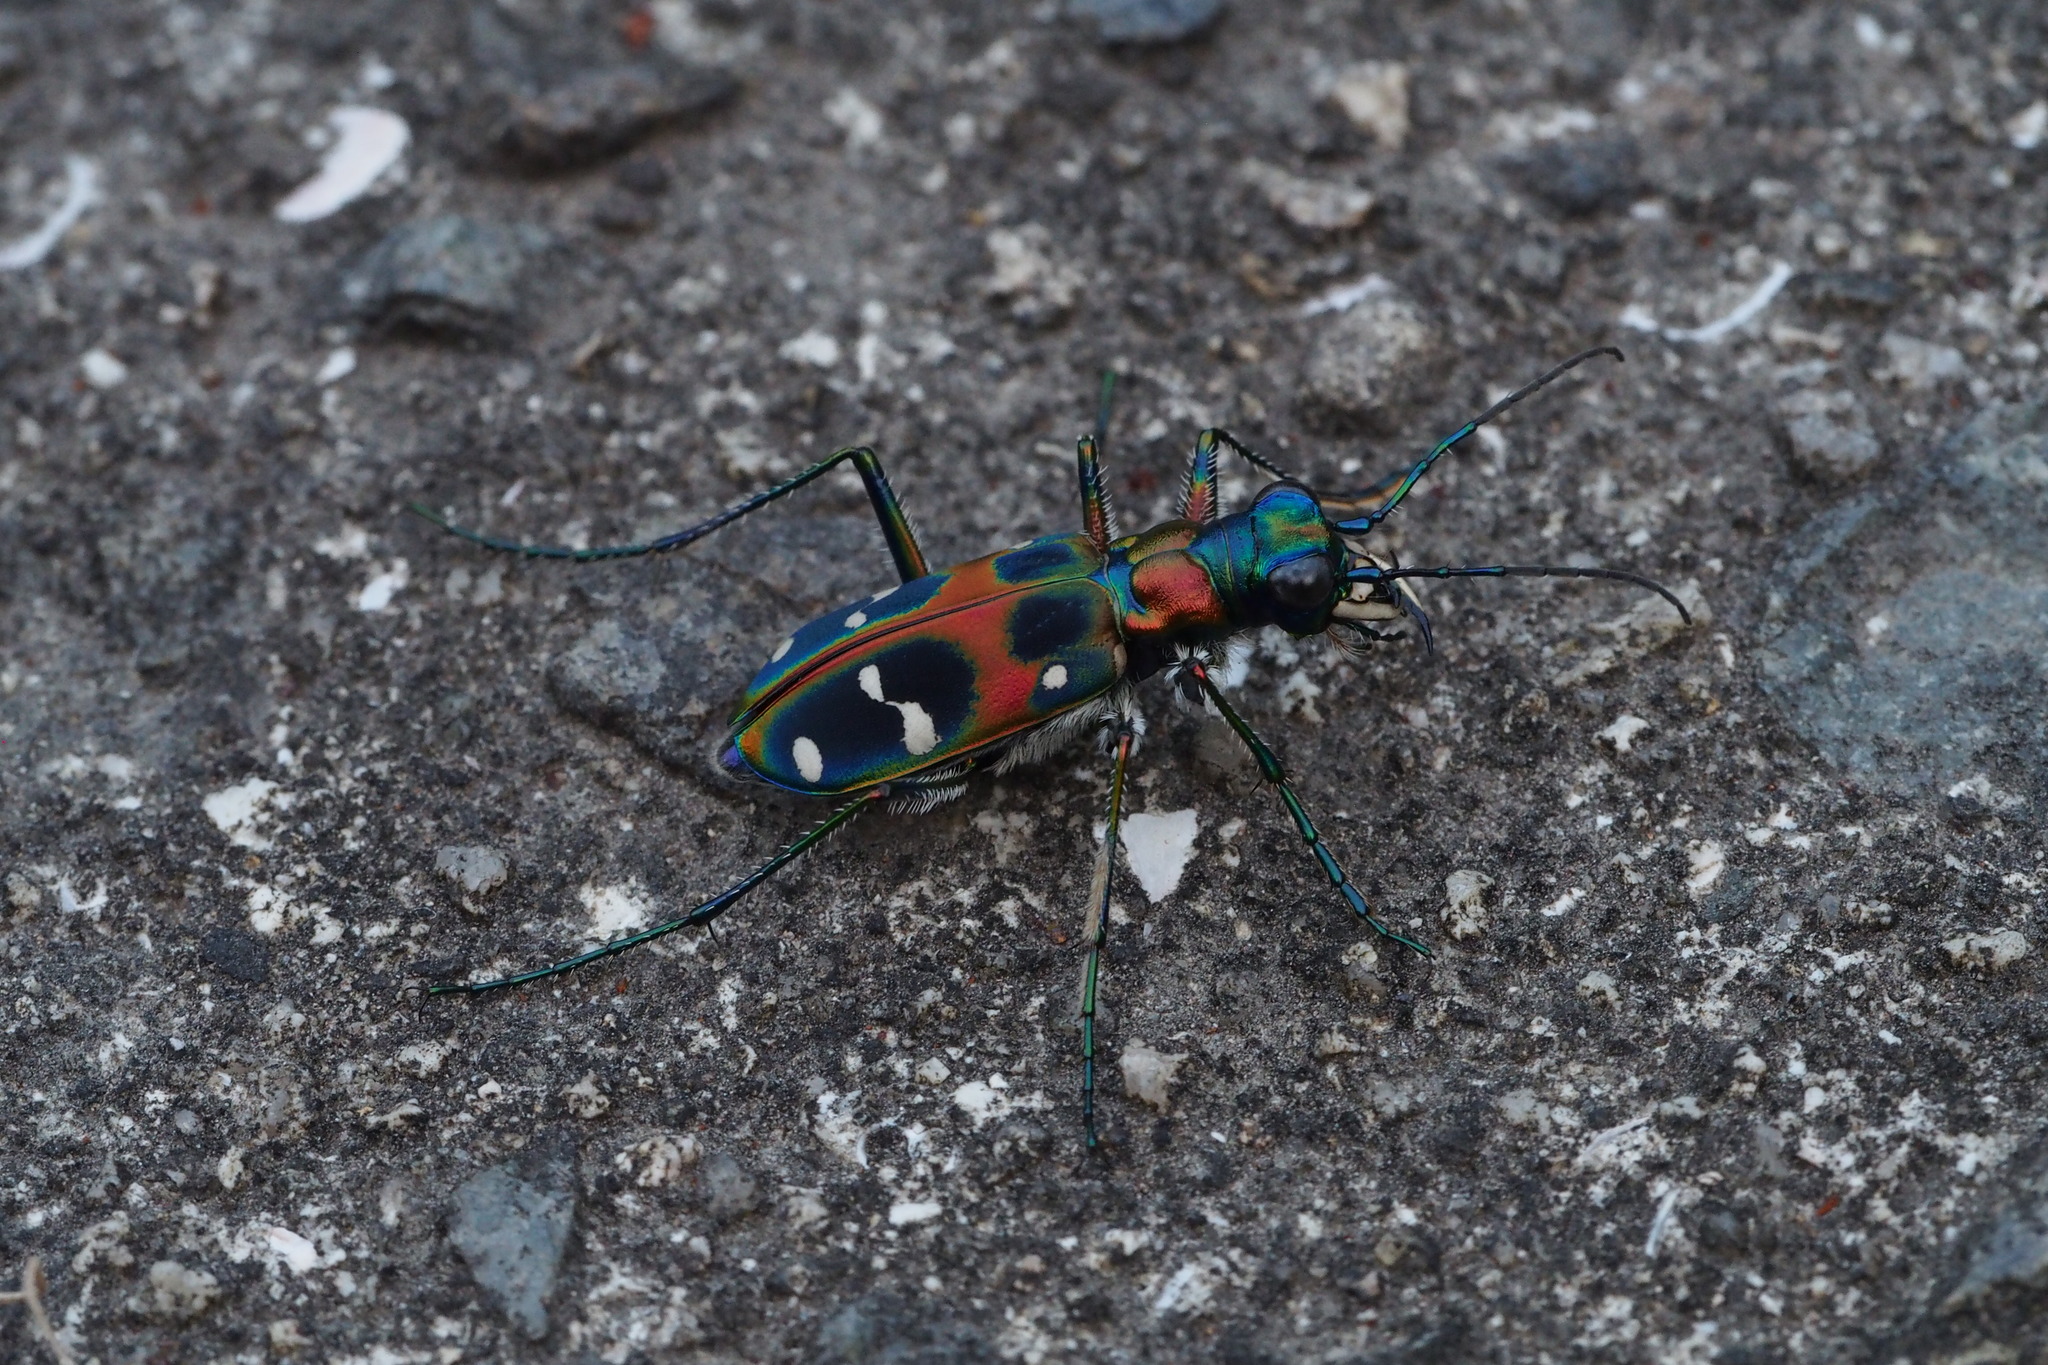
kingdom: Animalia
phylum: Arthropoda
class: Insecta
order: Coleoptera
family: Carabidae
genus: Cicindela
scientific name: Cicindela chinensis
